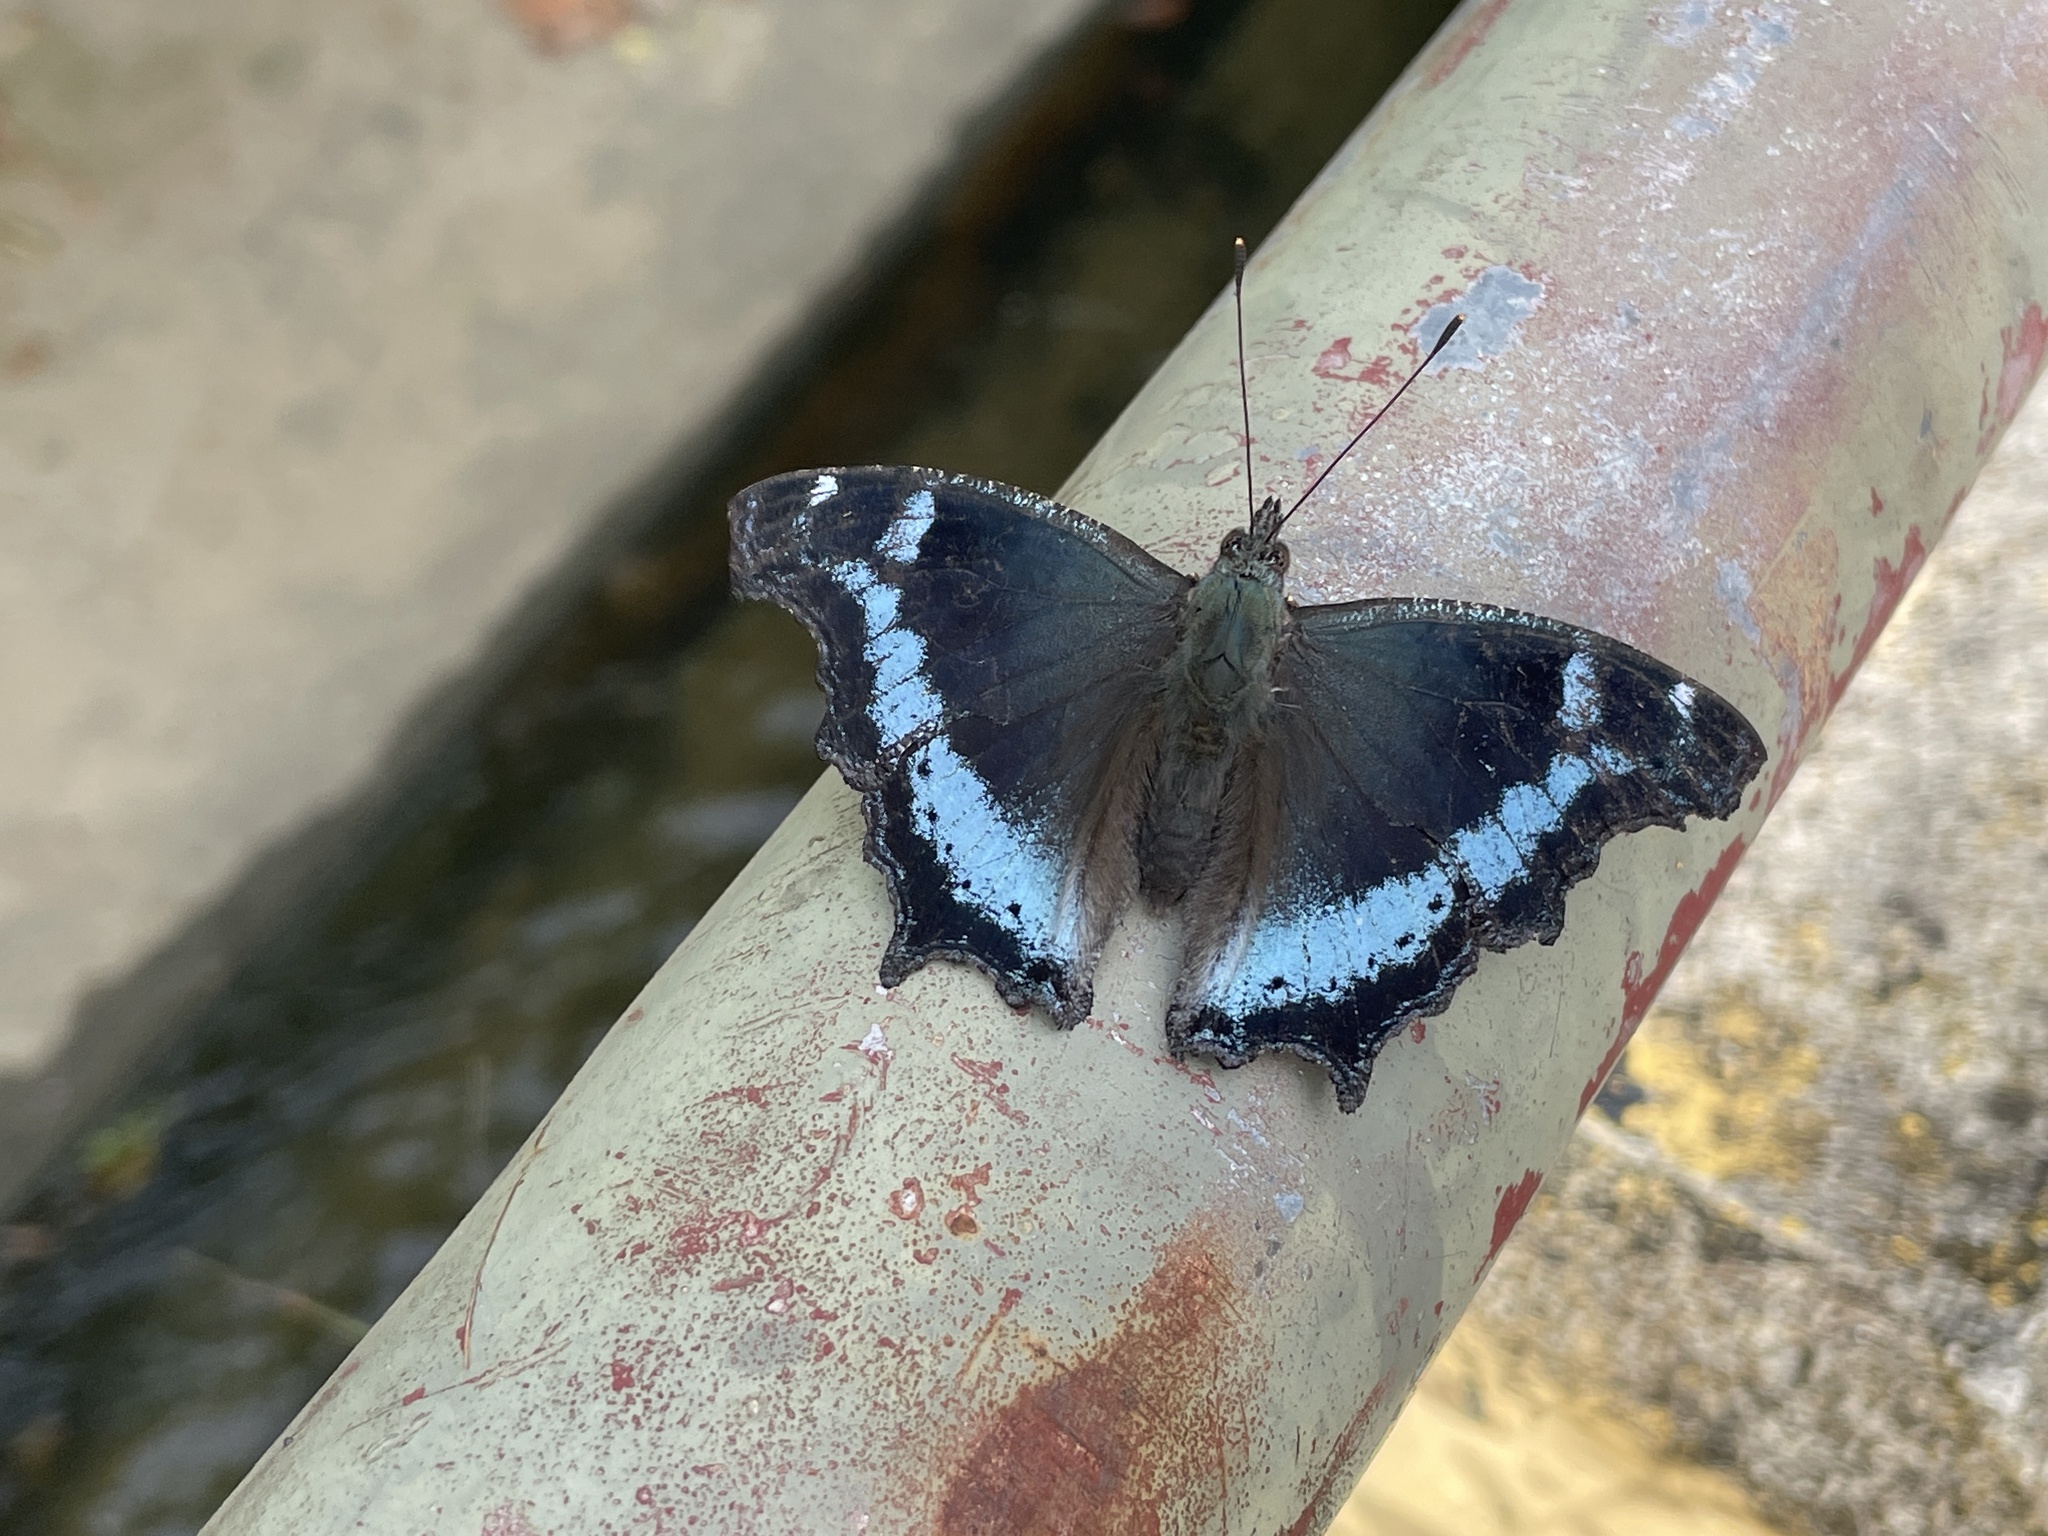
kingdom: Animalia
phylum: Arthropoda
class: Insecta
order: Lepidoptera
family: Nymphalidae
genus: Vanessa
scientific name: Vanessa Kaniska canace
